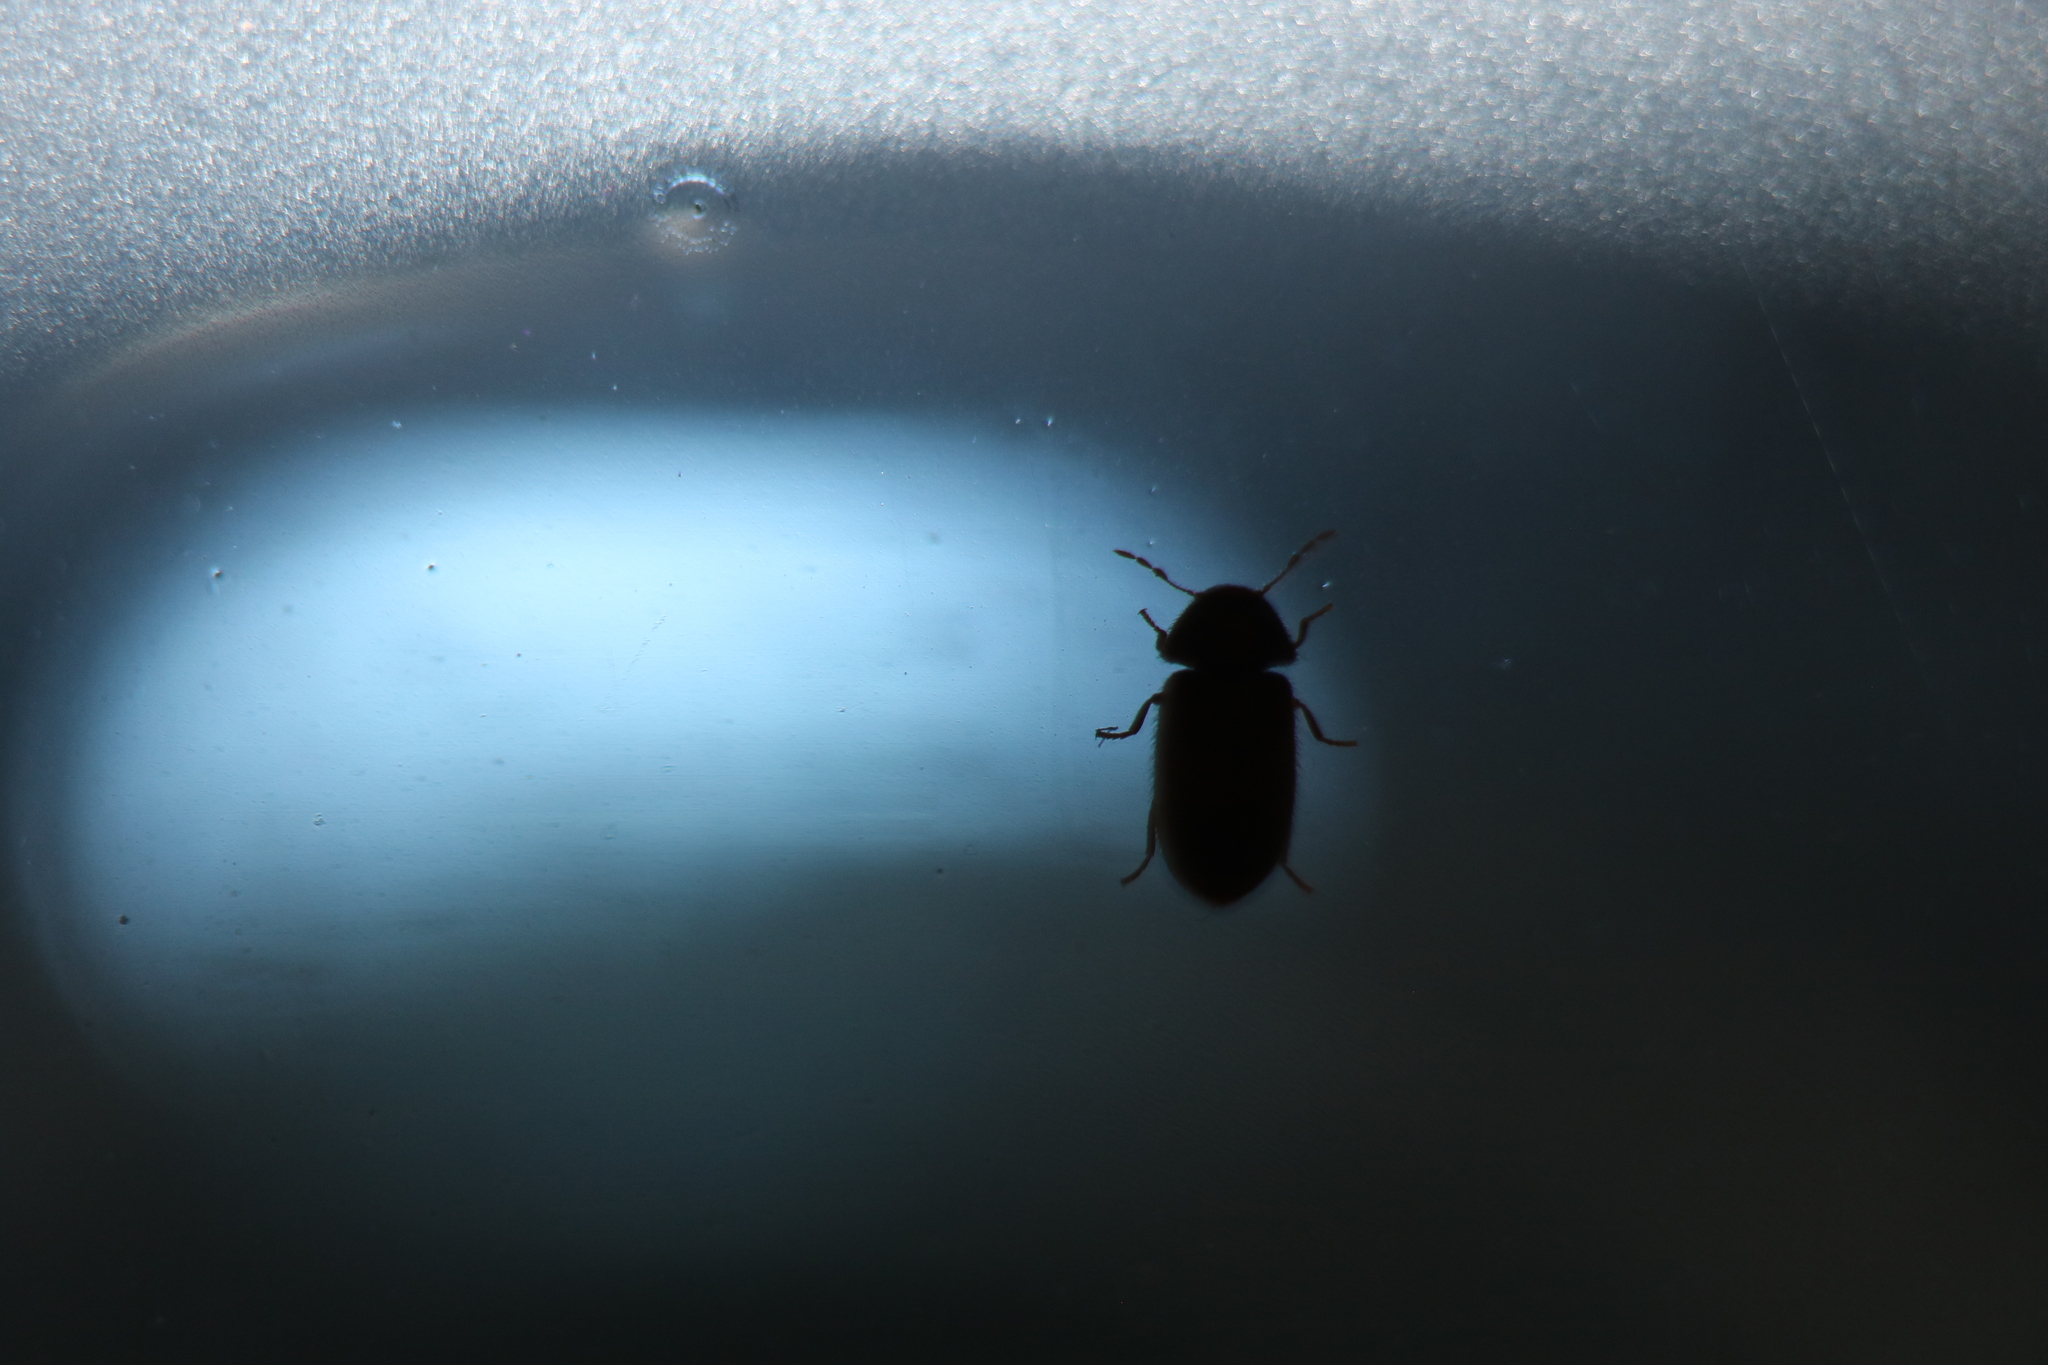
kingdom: Animalia
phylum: Arthropoda
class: Insecta
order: Coleoptera
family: Anobiidae
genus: Stegobium
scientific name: Stegobium paniceum
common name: Drugstore beetle
